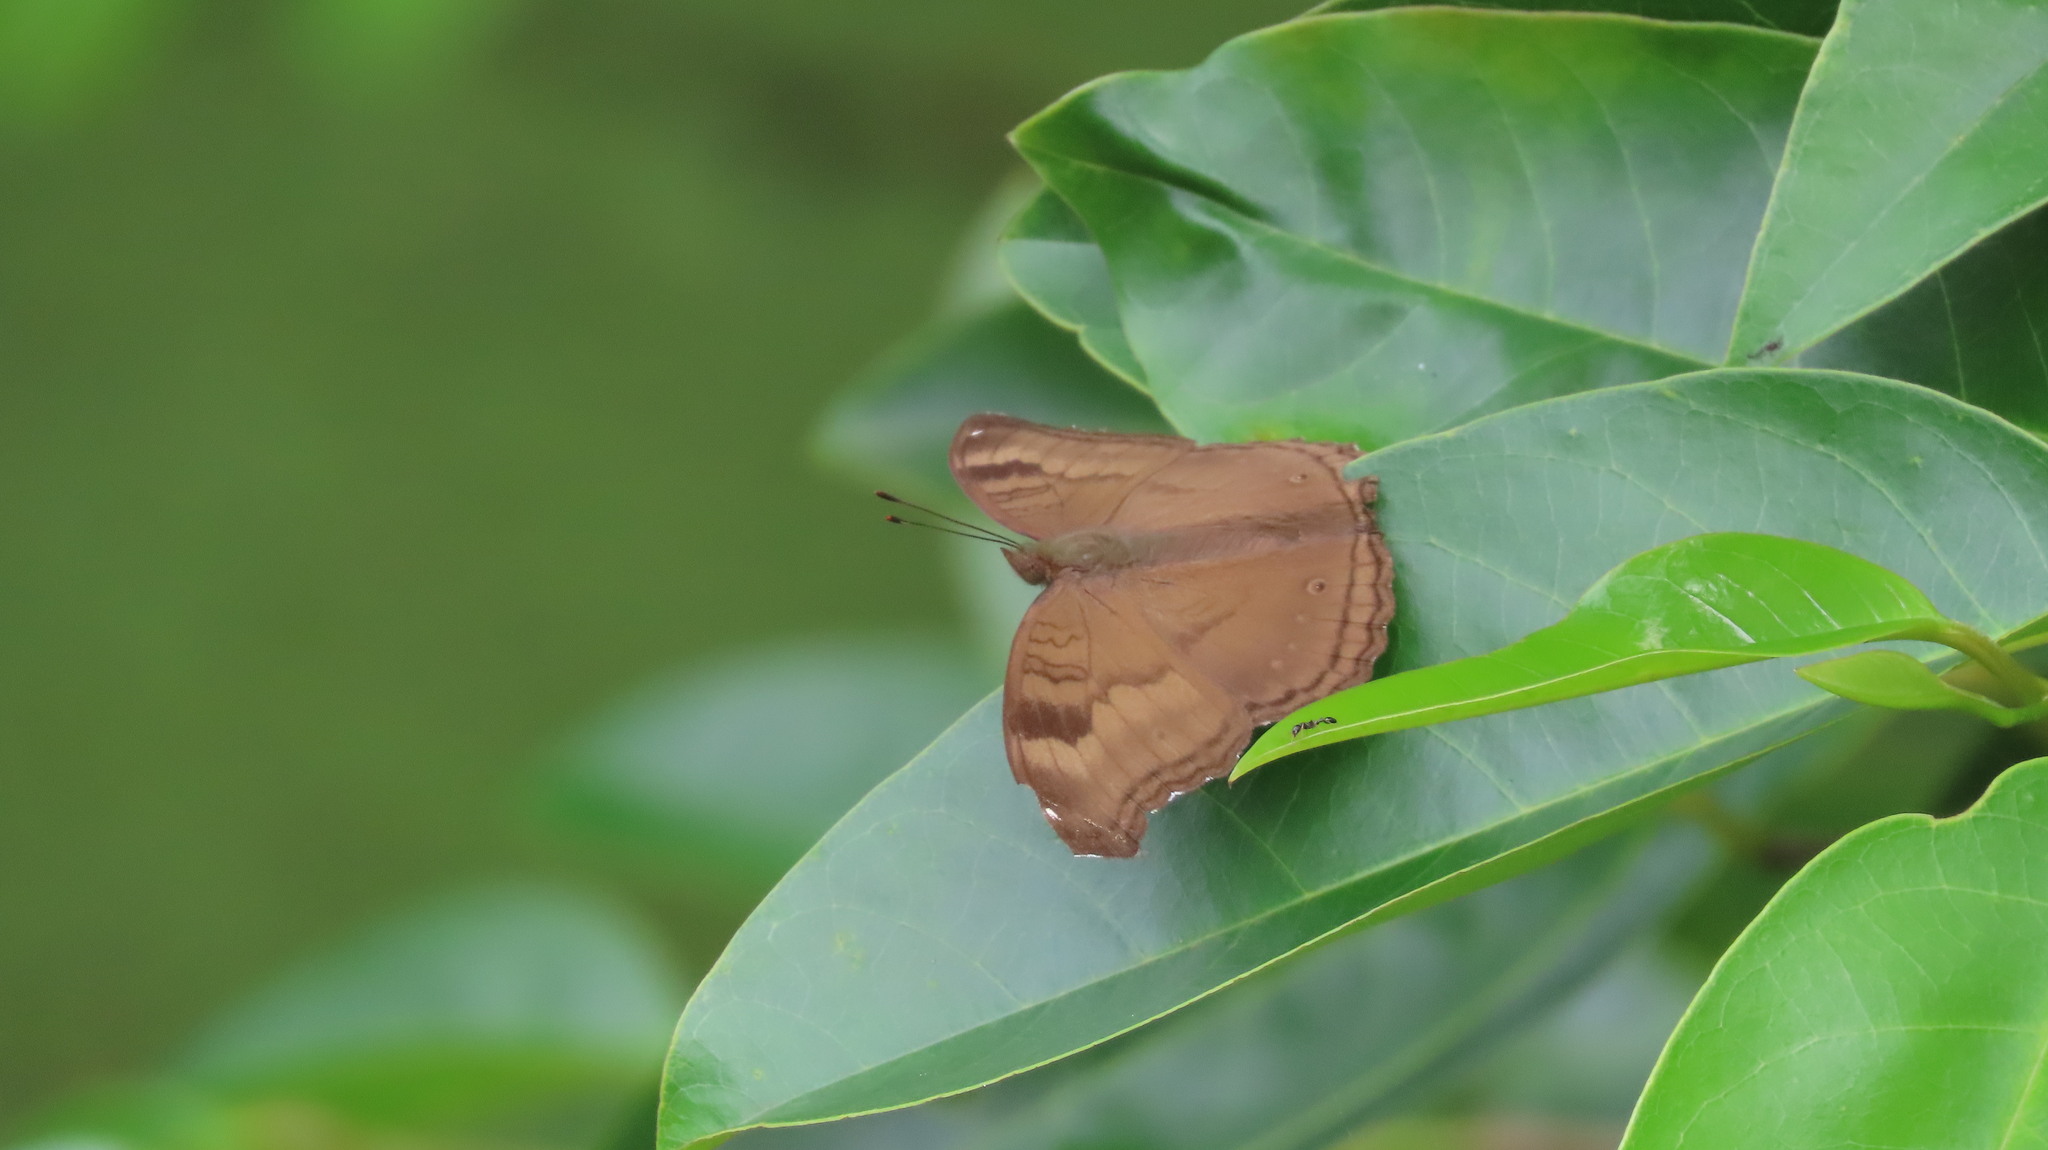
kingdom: Animalia
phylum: Arthropoda
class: Insecta
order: Lepidoptera
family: Nymphalidae
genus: Junonia
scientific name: Junonia iphita
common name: Chocolate pansy
